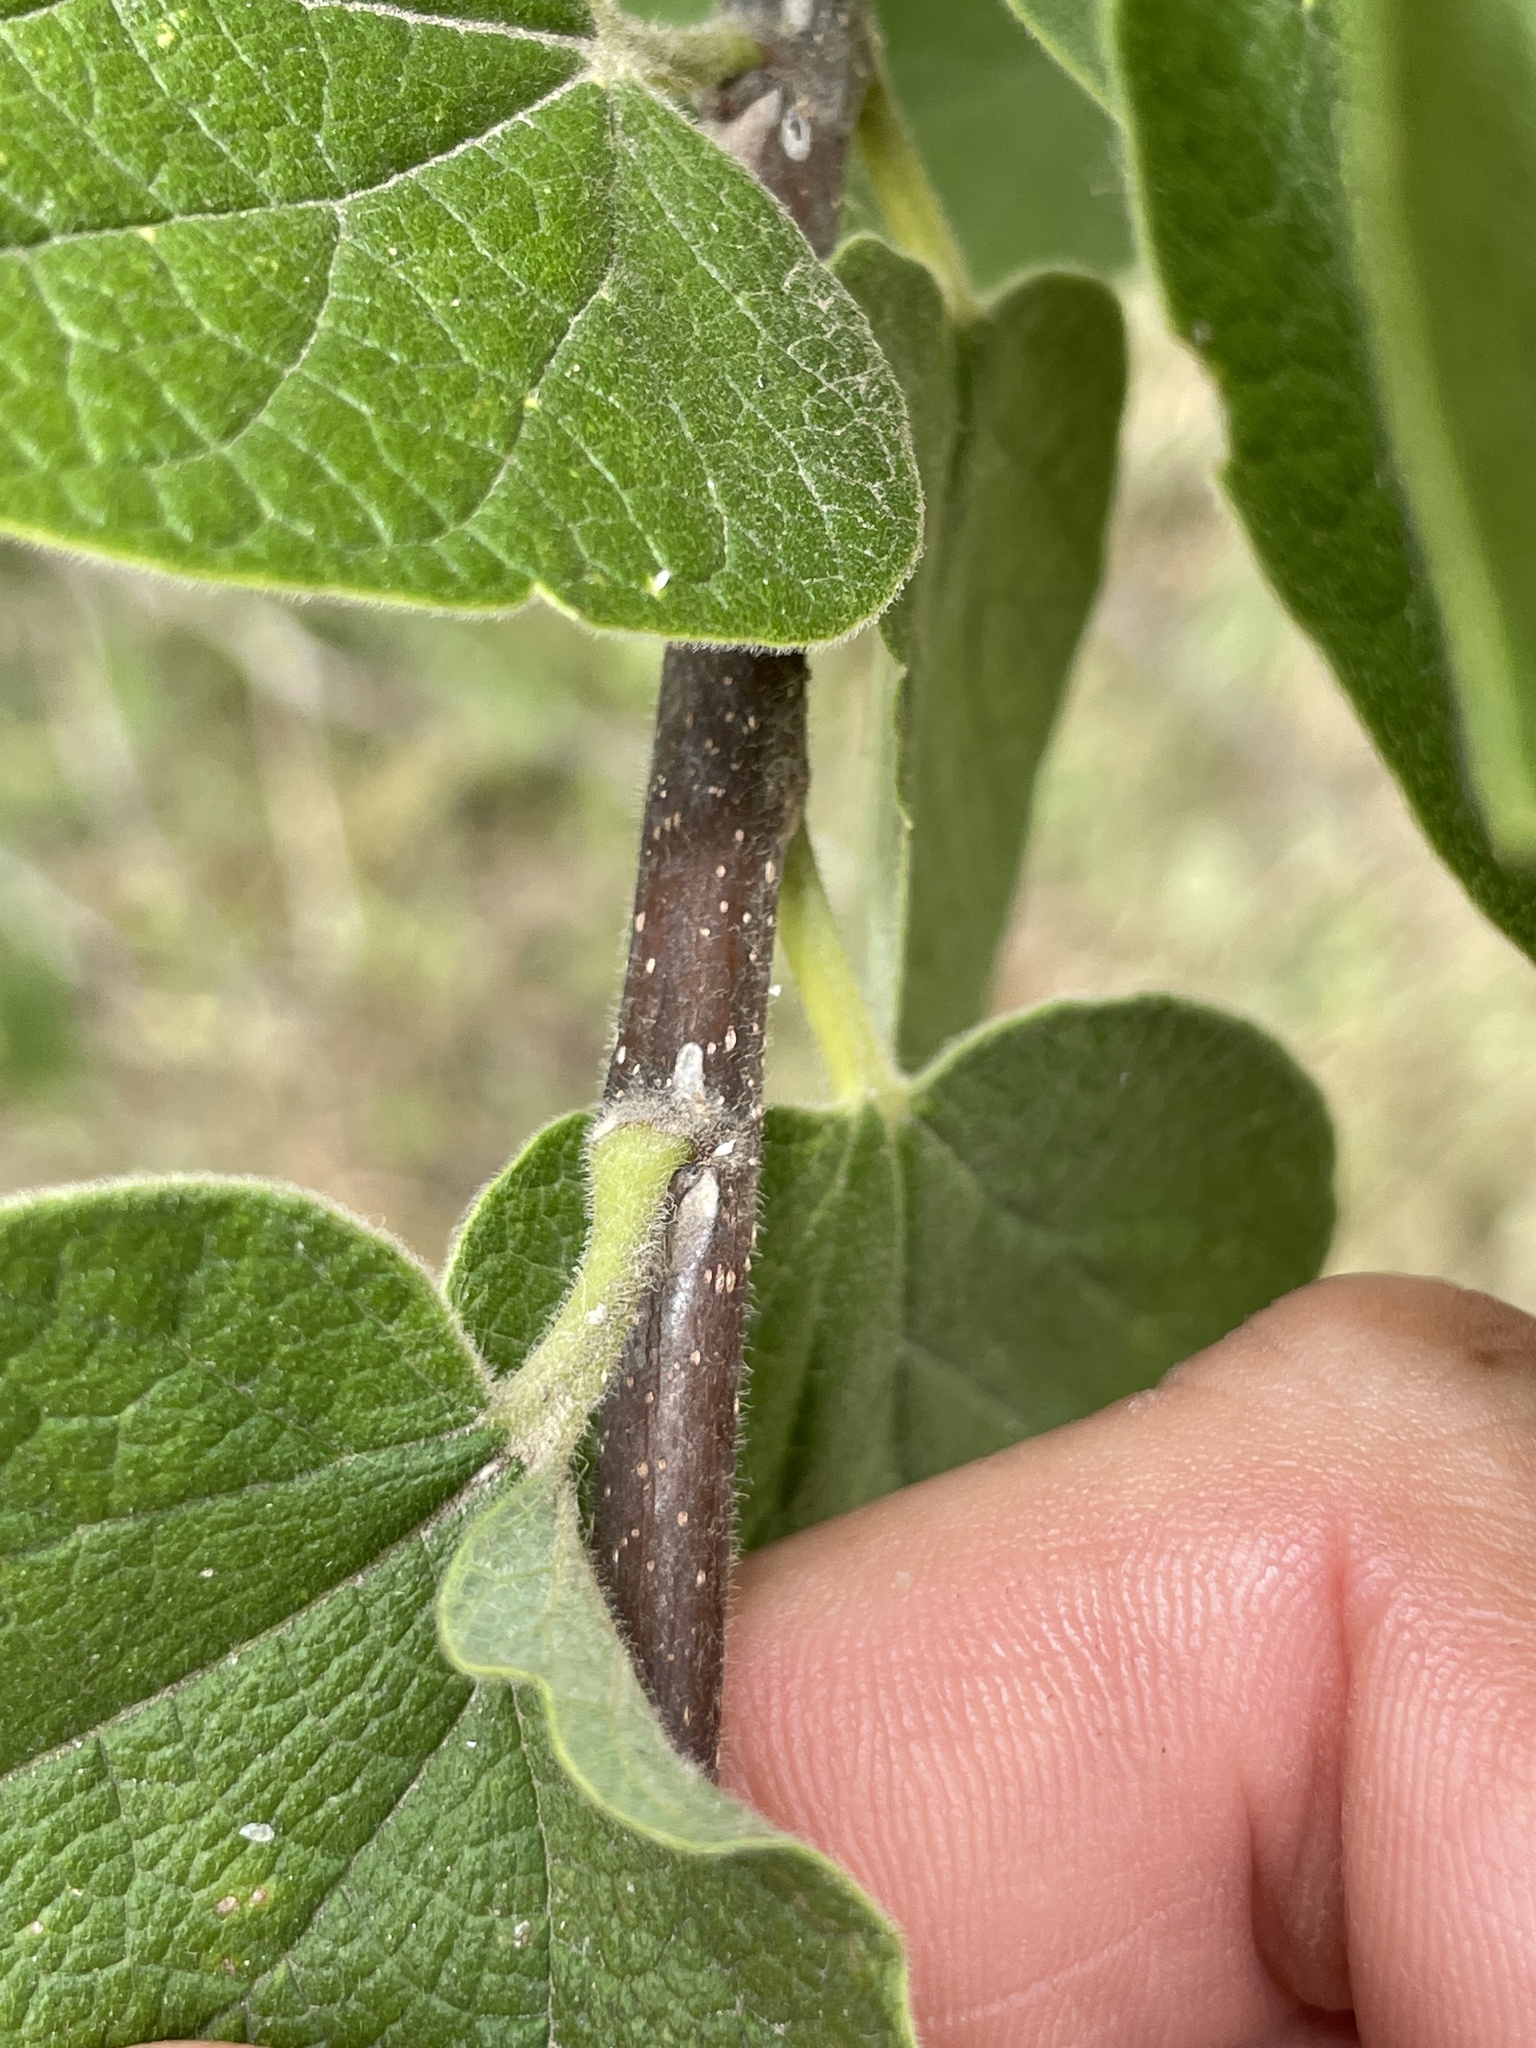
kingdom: Plantae
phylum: Tracheophyta
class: Magnoliopsida
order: Rosales
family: Cannabaceae
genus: Celtis
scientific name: Celtis reticulata
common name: Netleaf hackberry
